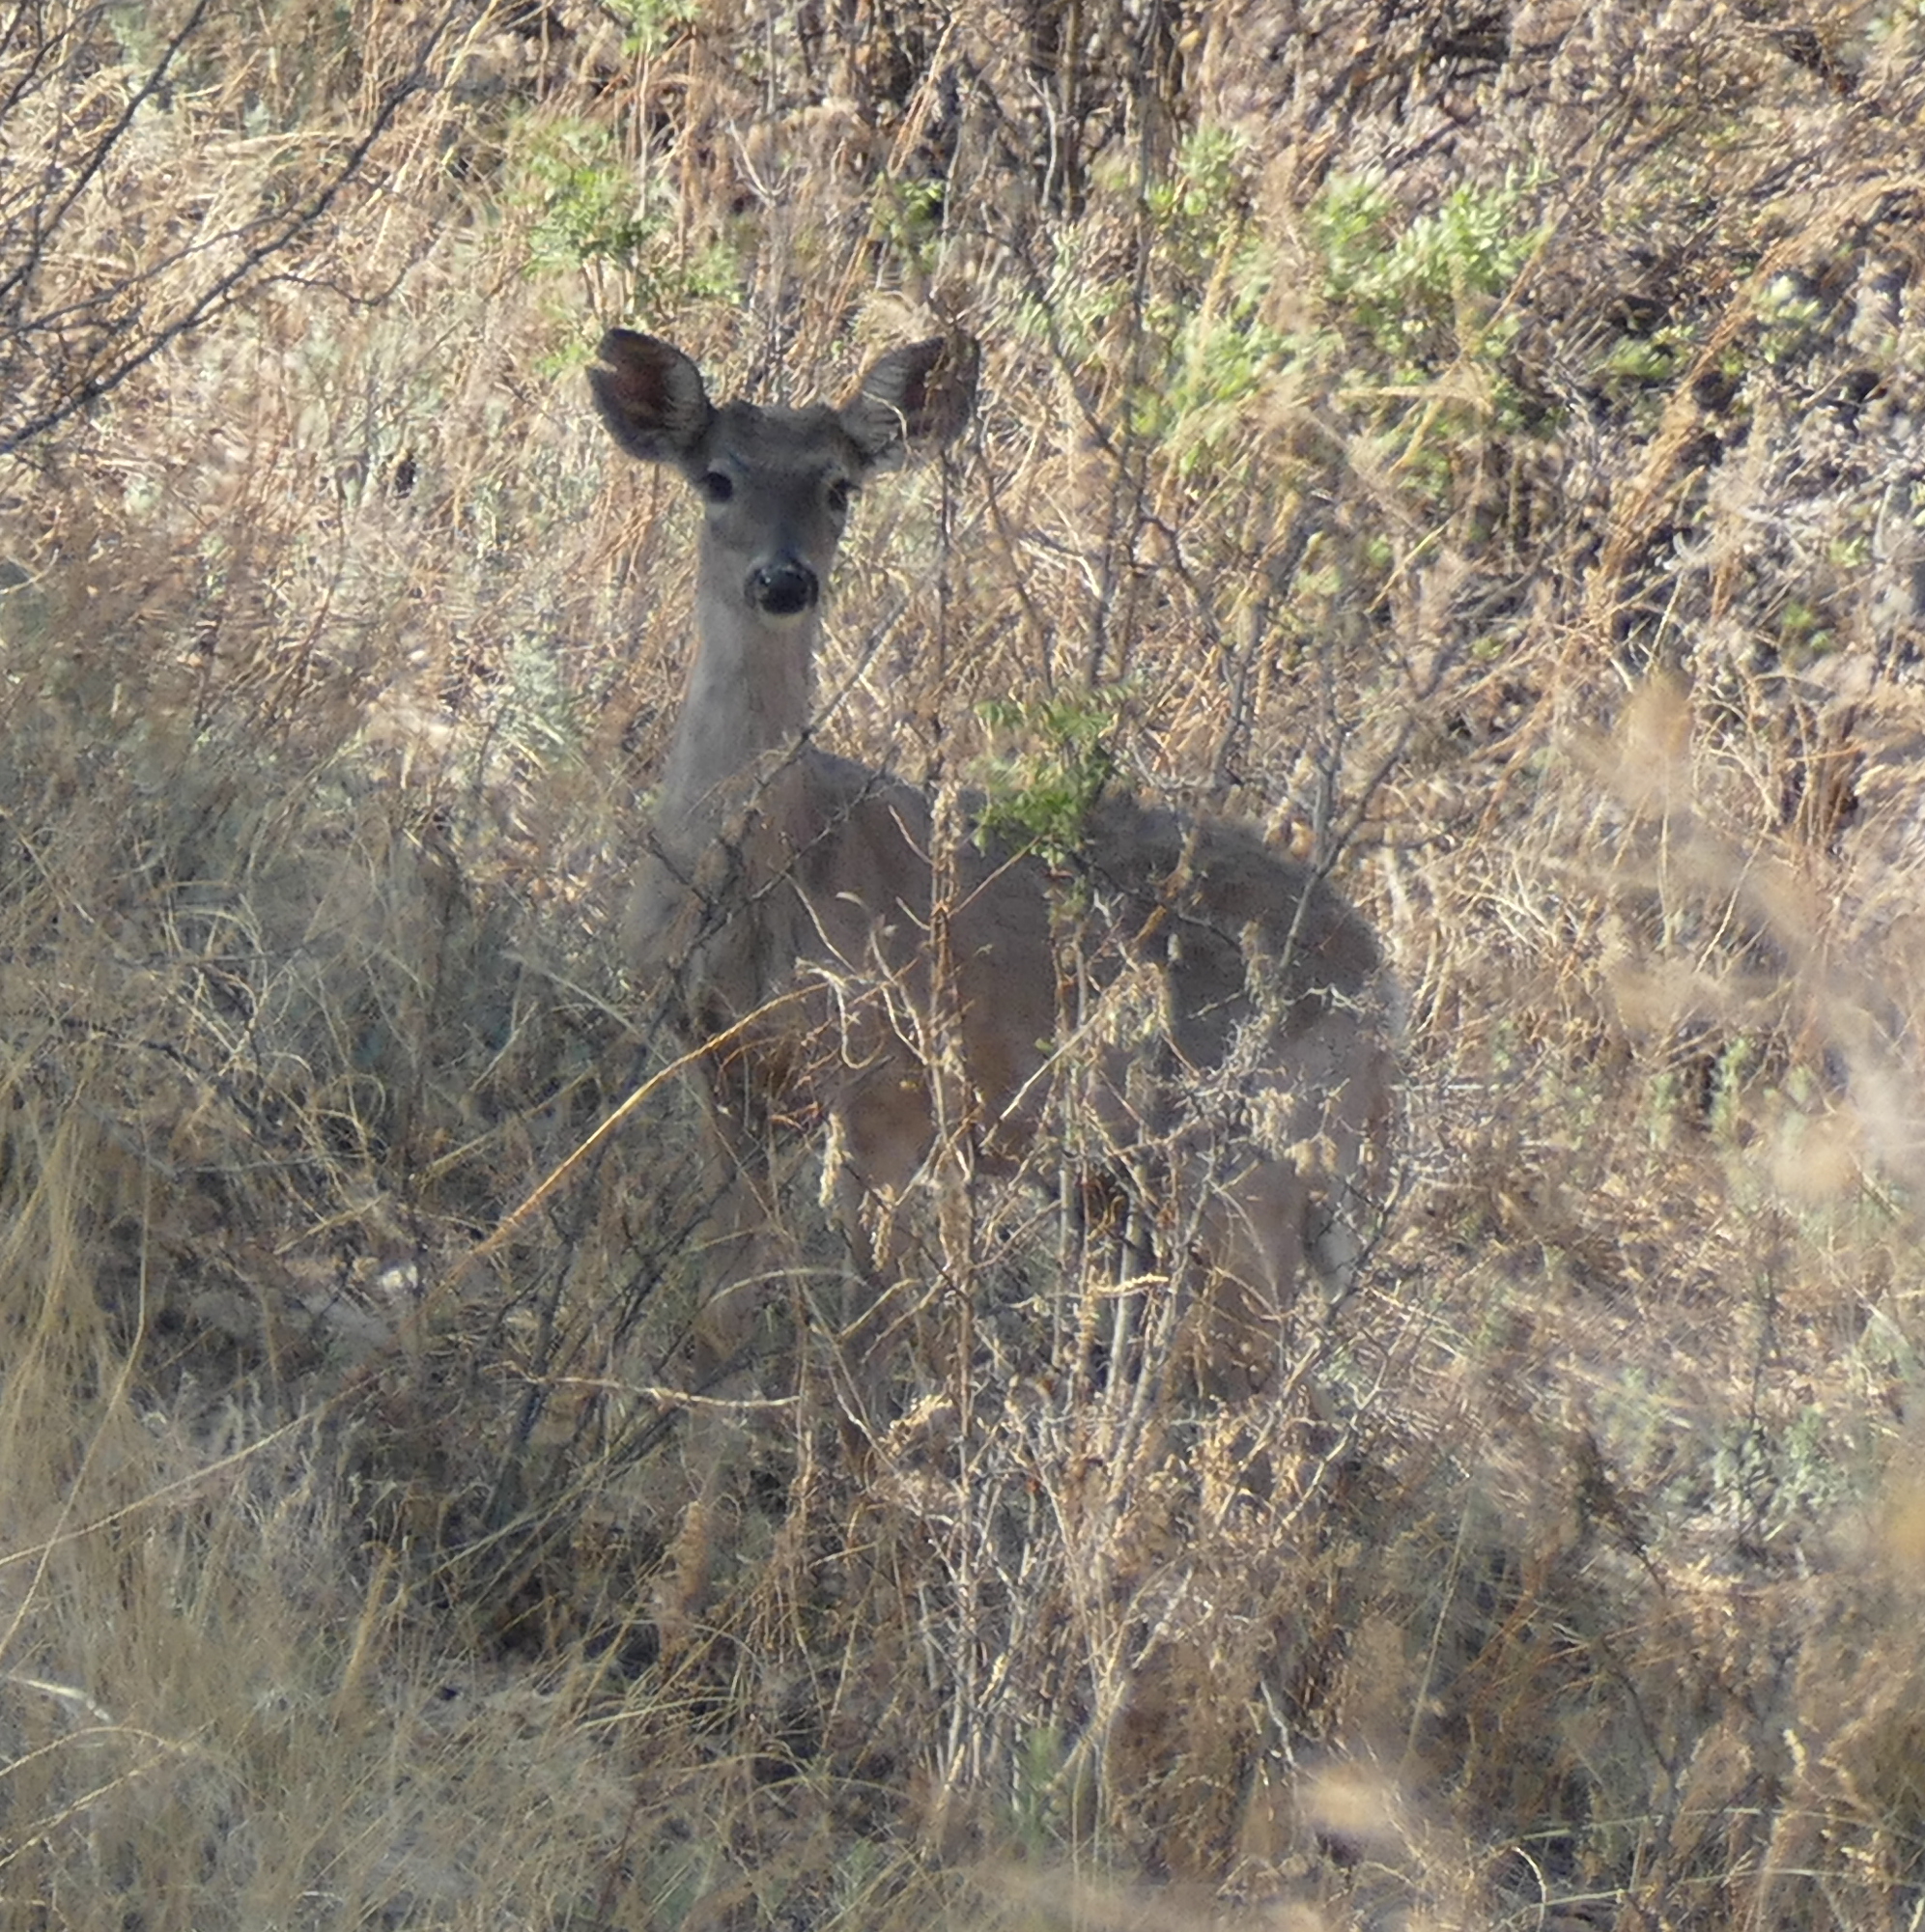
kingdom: Animalia
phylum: Chordata
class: Mammalia
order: Artiodactyla
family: Cervidae
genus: Odocoileus
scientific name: Odocoileus virginianus
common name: White-tailed deer
